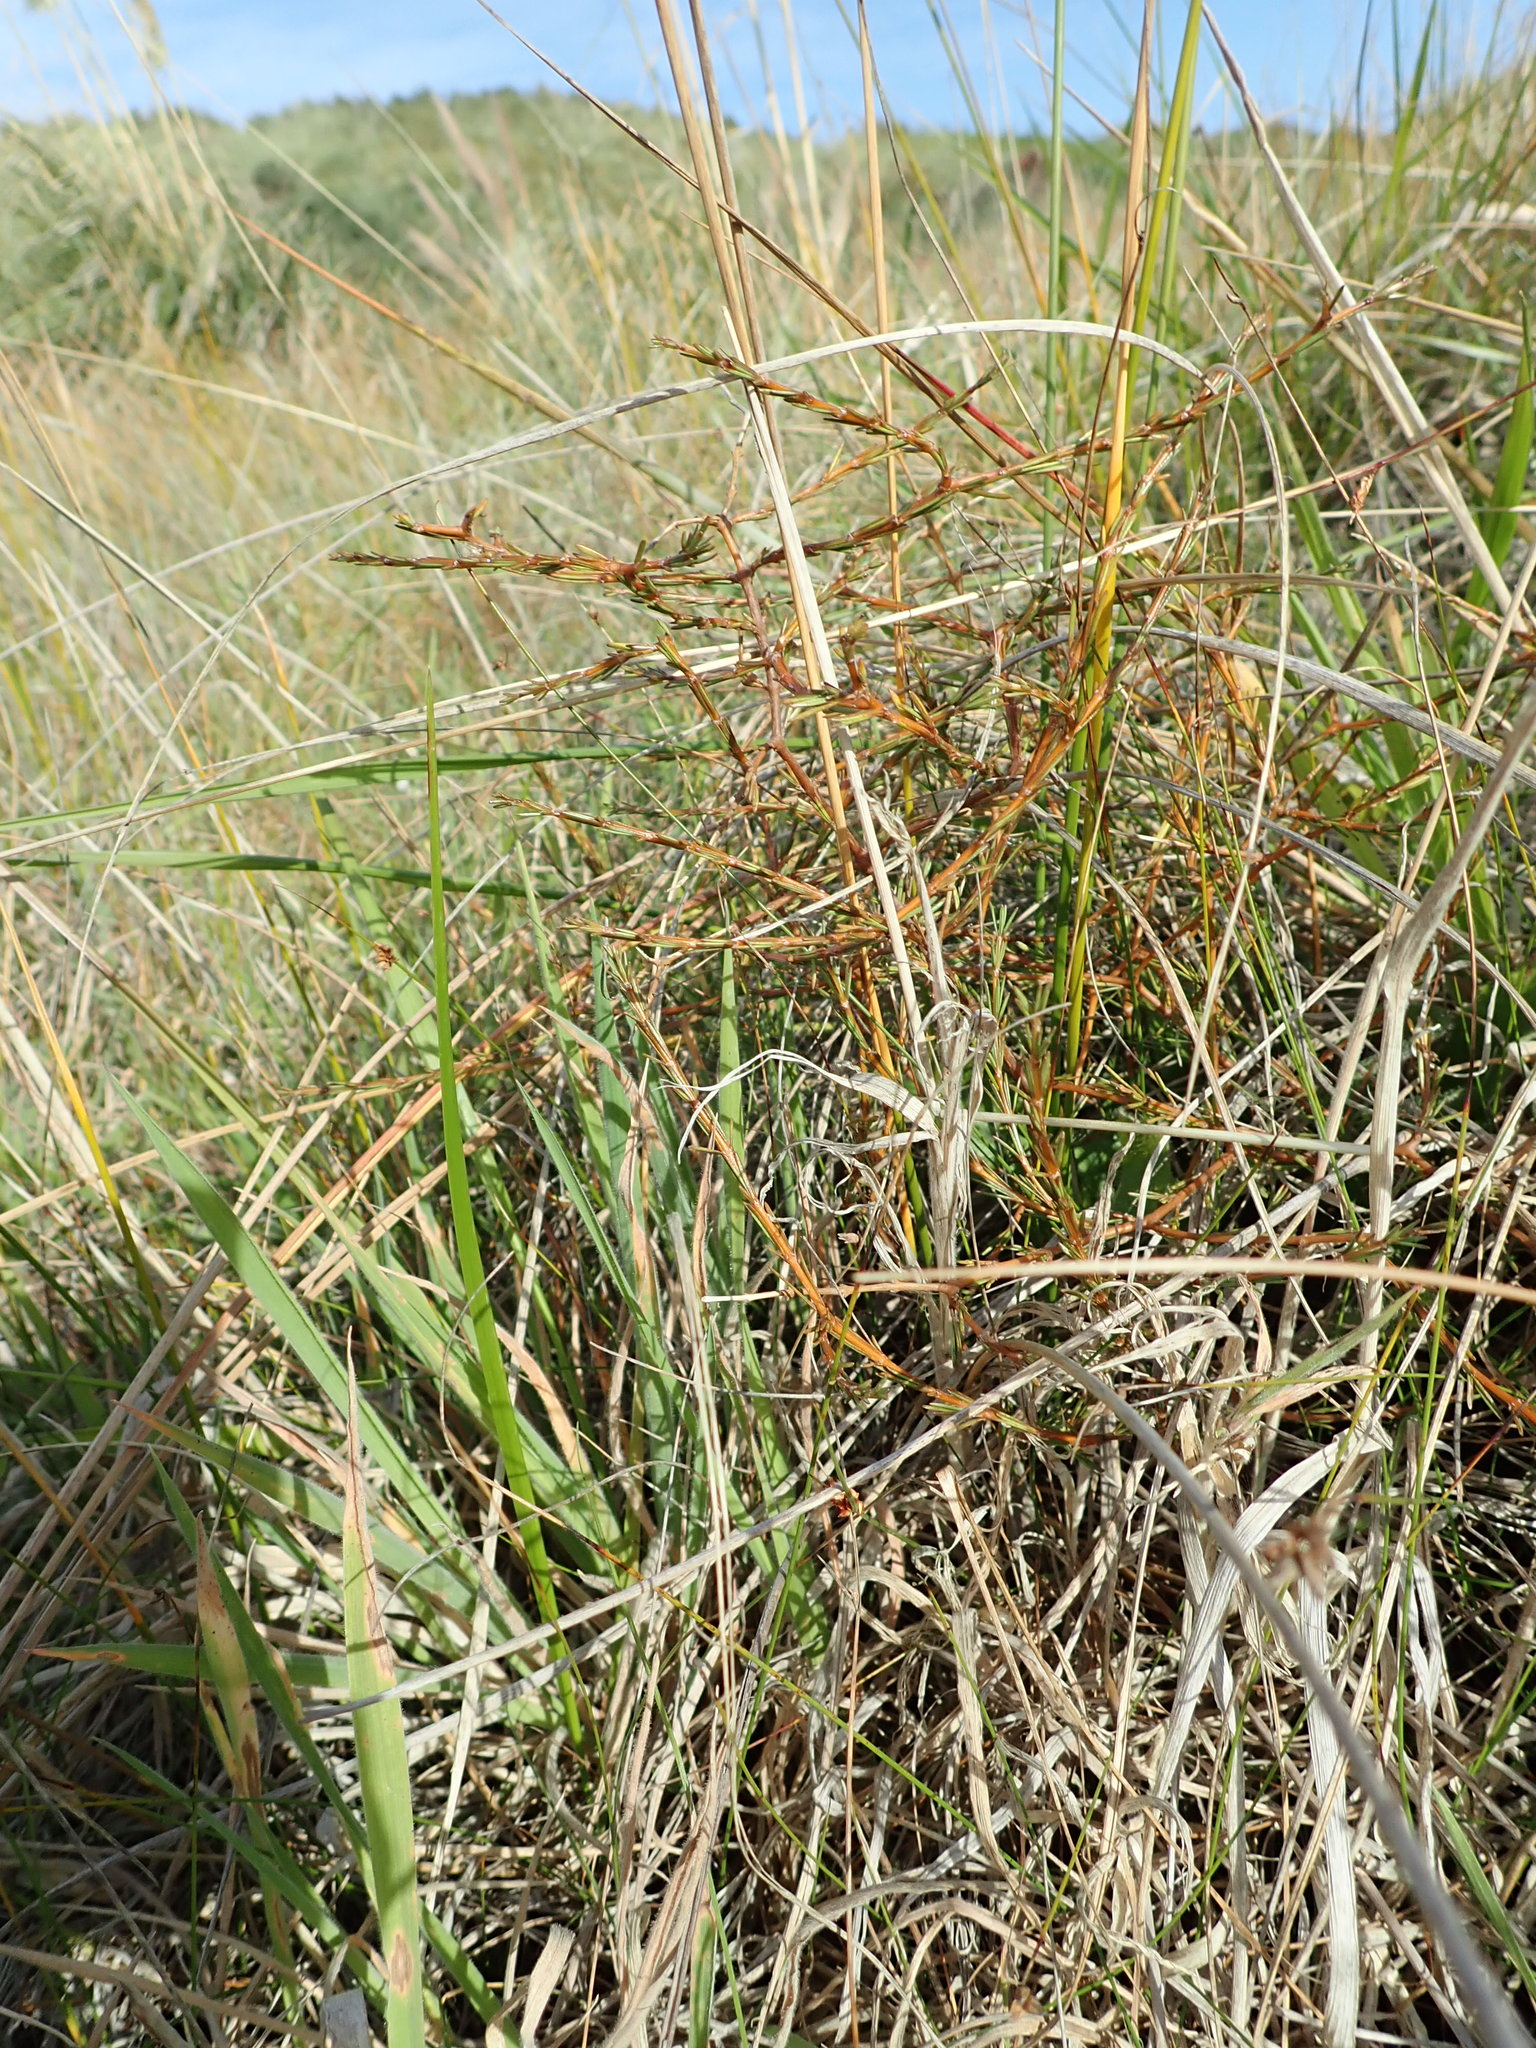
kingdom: Plantae
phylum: Tracheophyta
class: Magnoliopsida
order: Gentianales
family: Rubiaceae
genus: Coprosma
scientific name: Coprosma acerosa
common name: Sand coprosma
